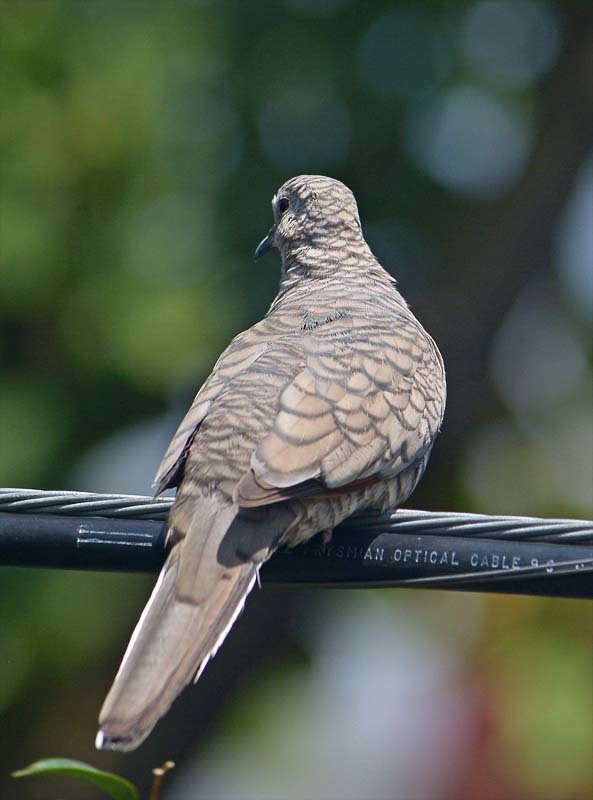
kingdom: Animalia
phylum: Chordata
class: Aves
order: Columbiformes
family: Columbidae
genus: Columbina
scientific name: Columbina inca
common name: Inca dove
